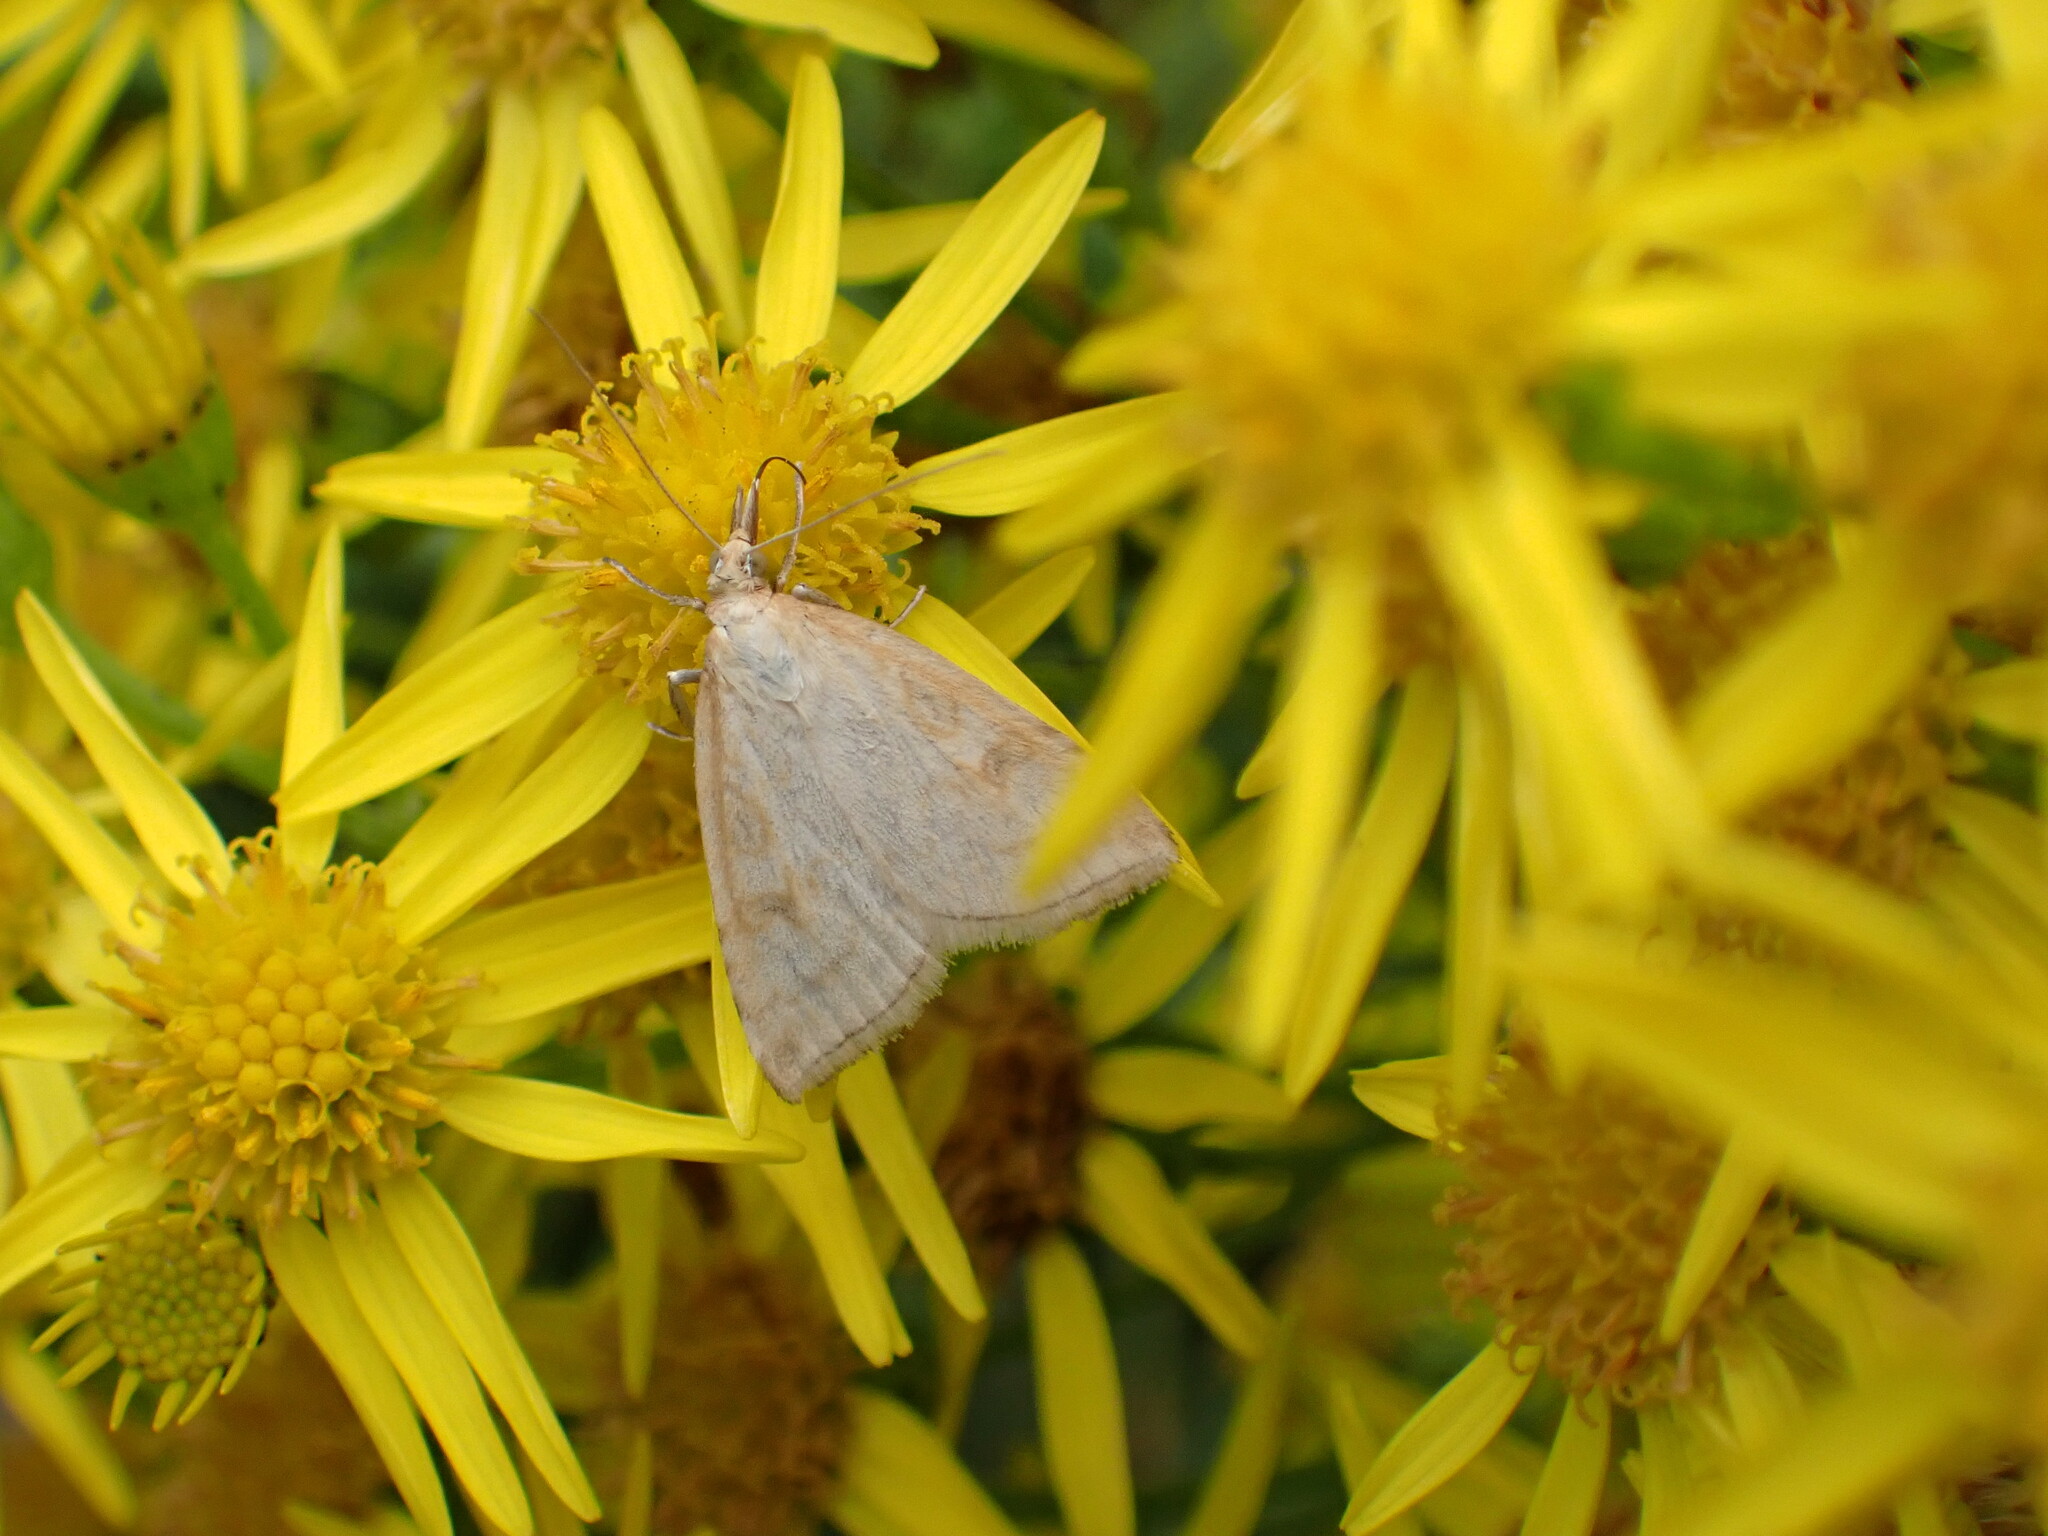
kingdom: Animalia
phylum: Arthropoda
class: Insecta
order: Lepidoptera
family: Crambidae
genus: Udea
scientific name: Udea lutealis
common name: Pale straw pearl
